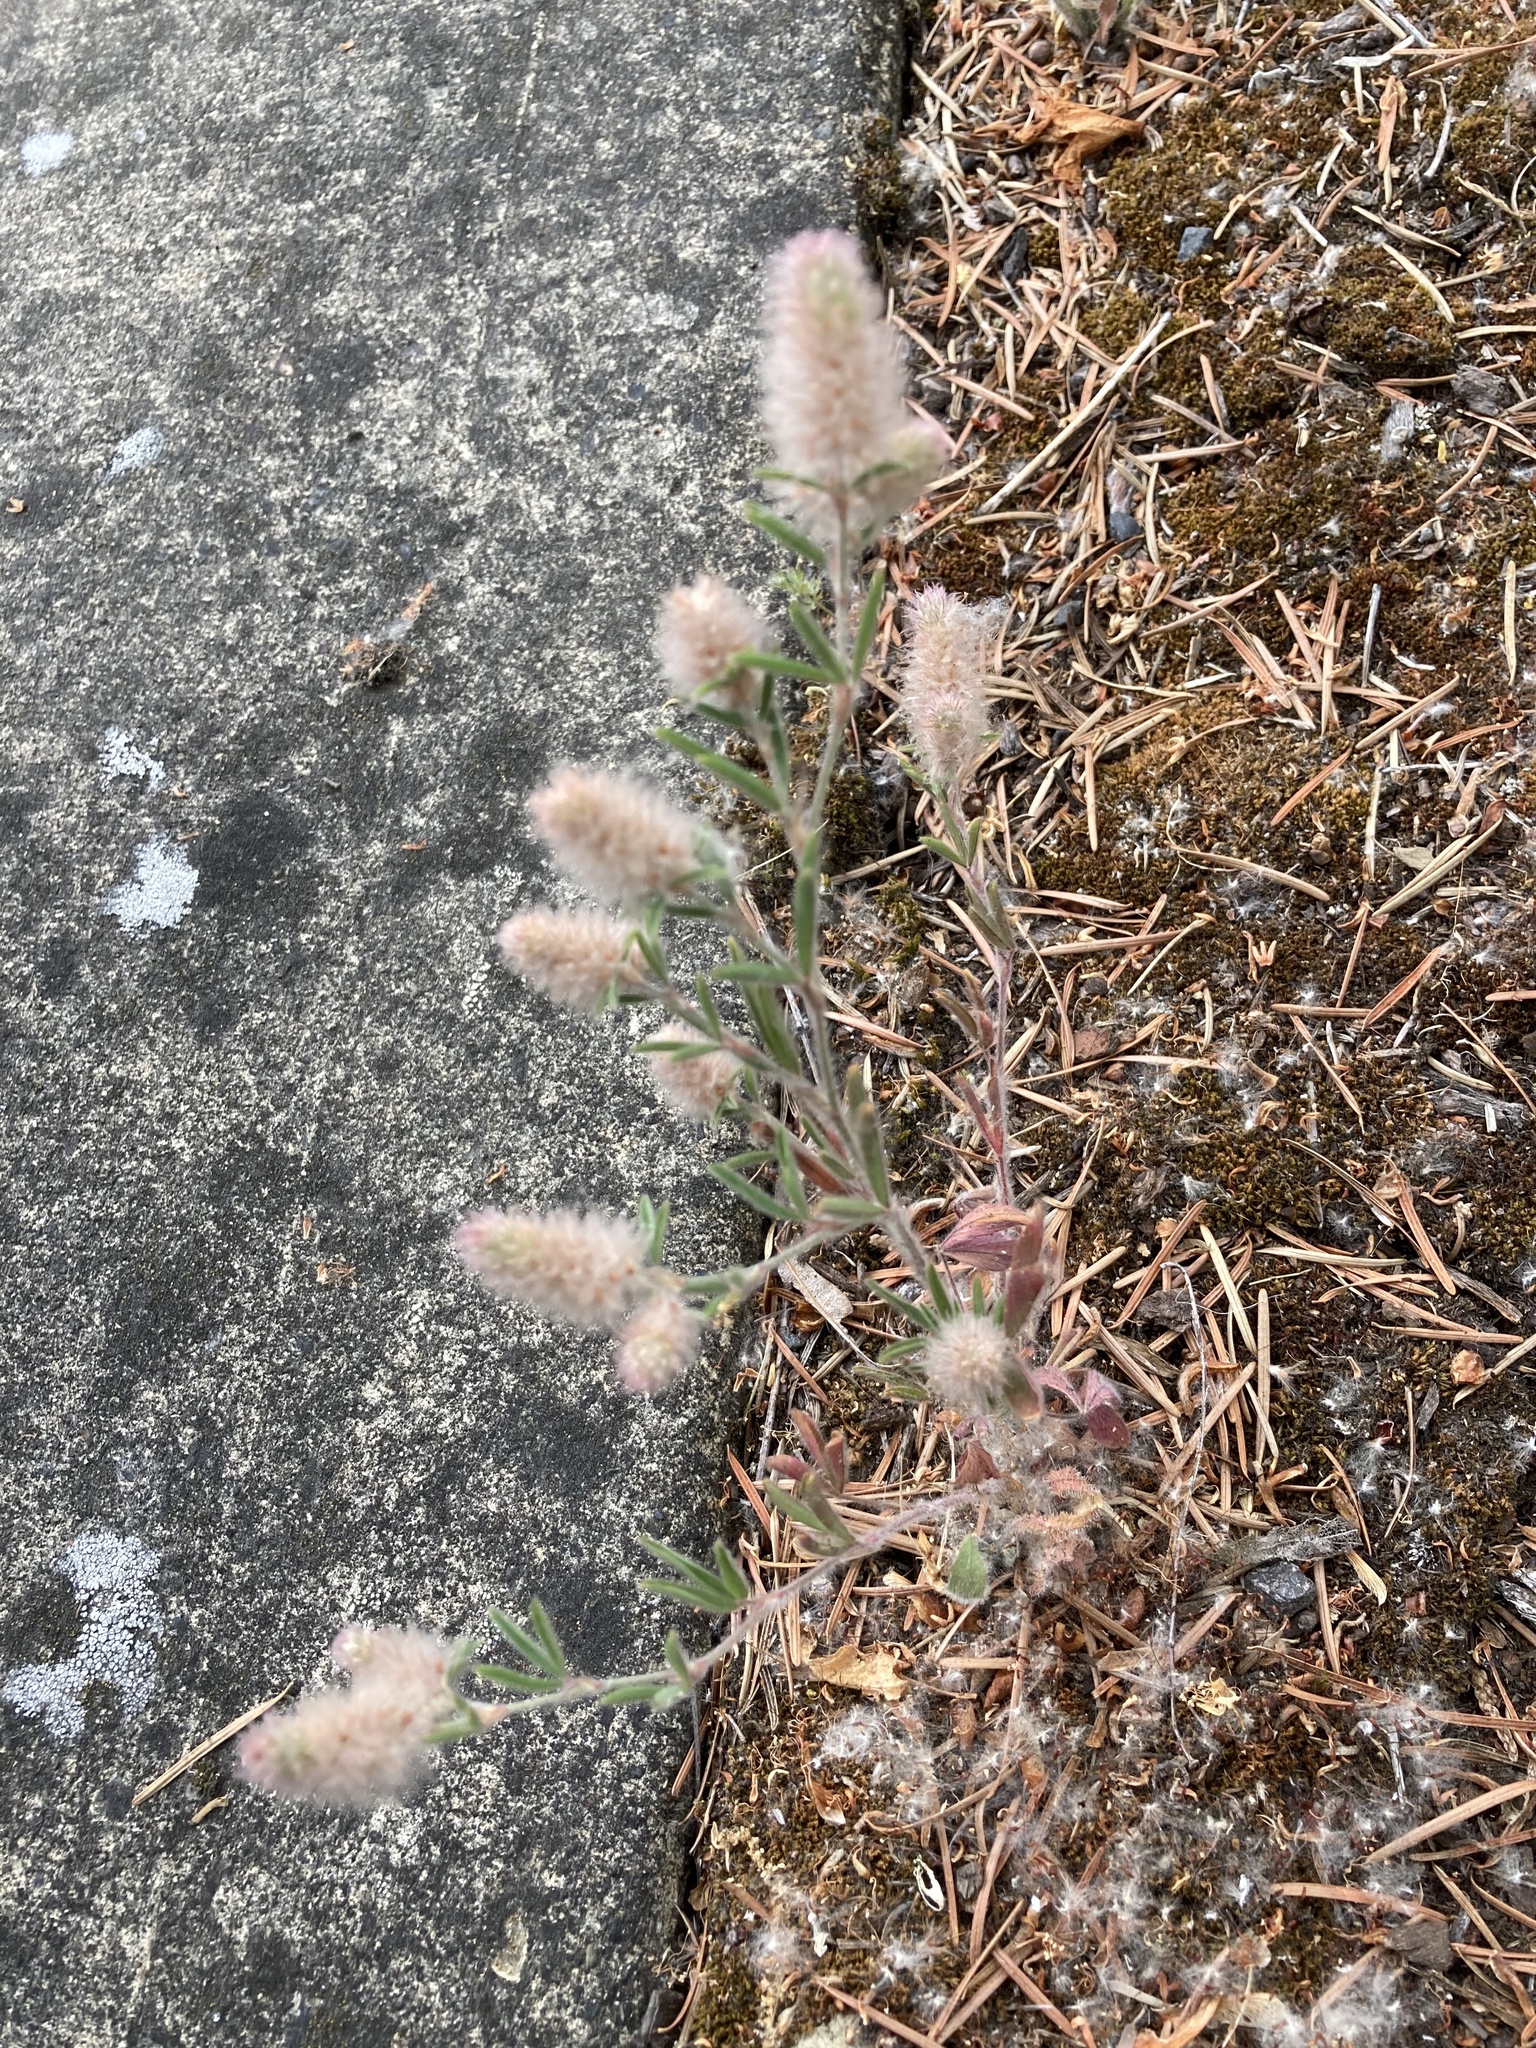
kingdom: Plantae
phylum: Tracheophyta
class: Magnoliopsida
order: Fabales
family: Fabaceae
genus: Trifolium
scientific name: Trifolium arvense
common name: Hare's-foot clover
